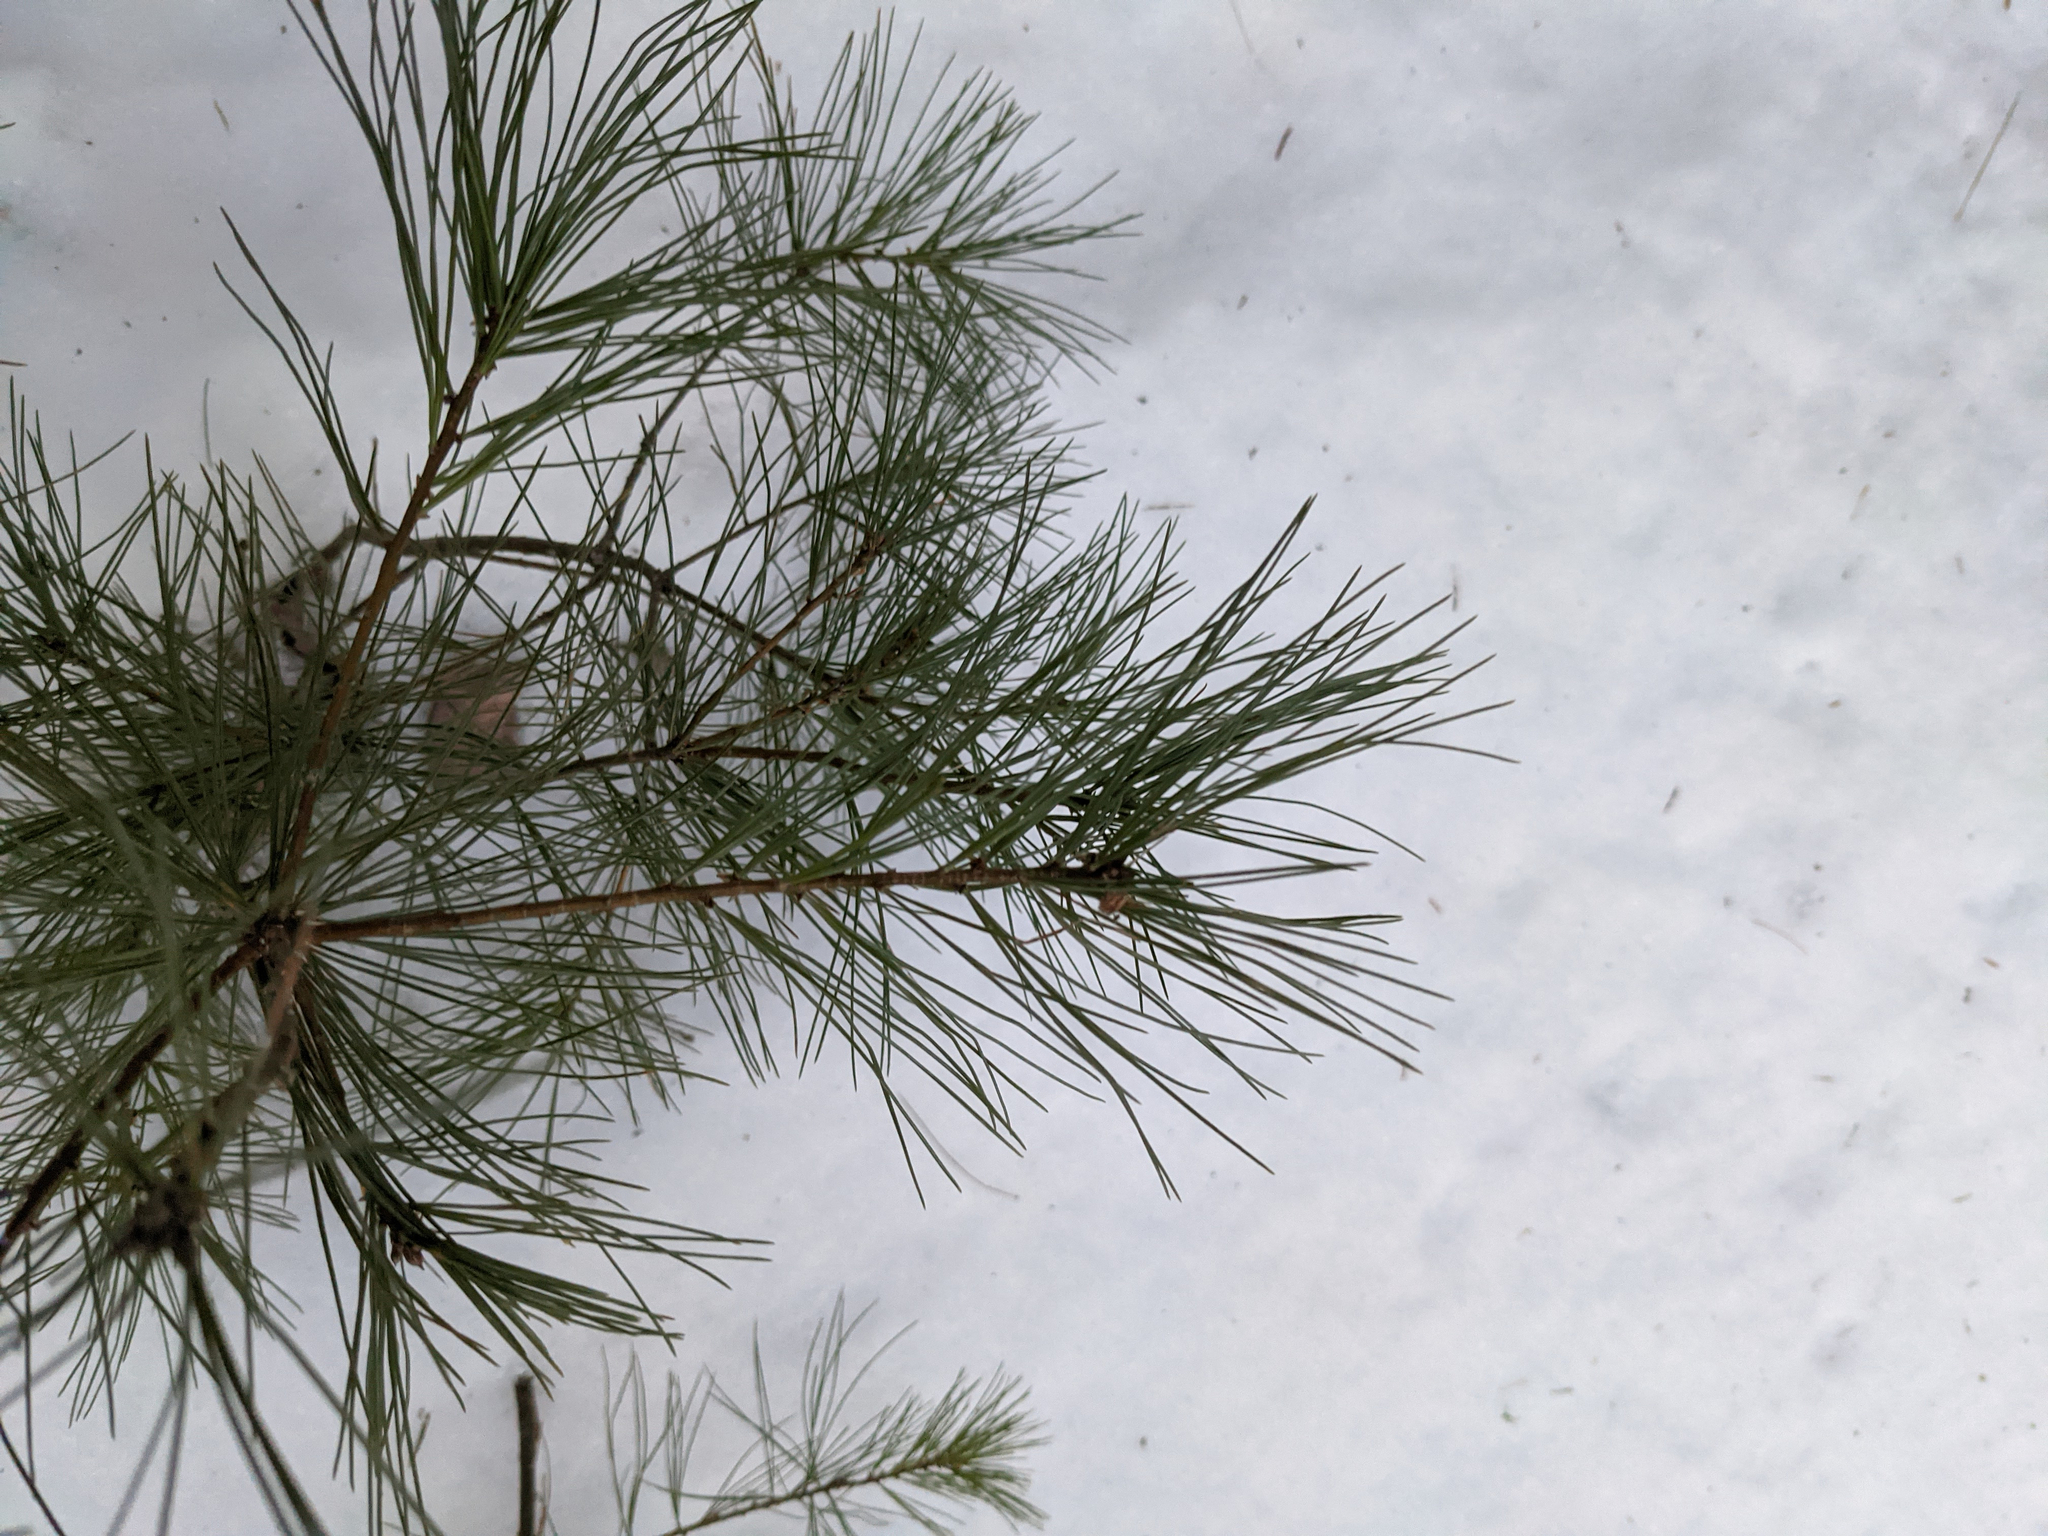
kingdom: Plantae
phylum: Tracheophyta
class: Pinopsida
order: Pinales
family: Pinaceae
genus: Pinus
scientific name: Pinus strobus
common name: Weymouth pine
